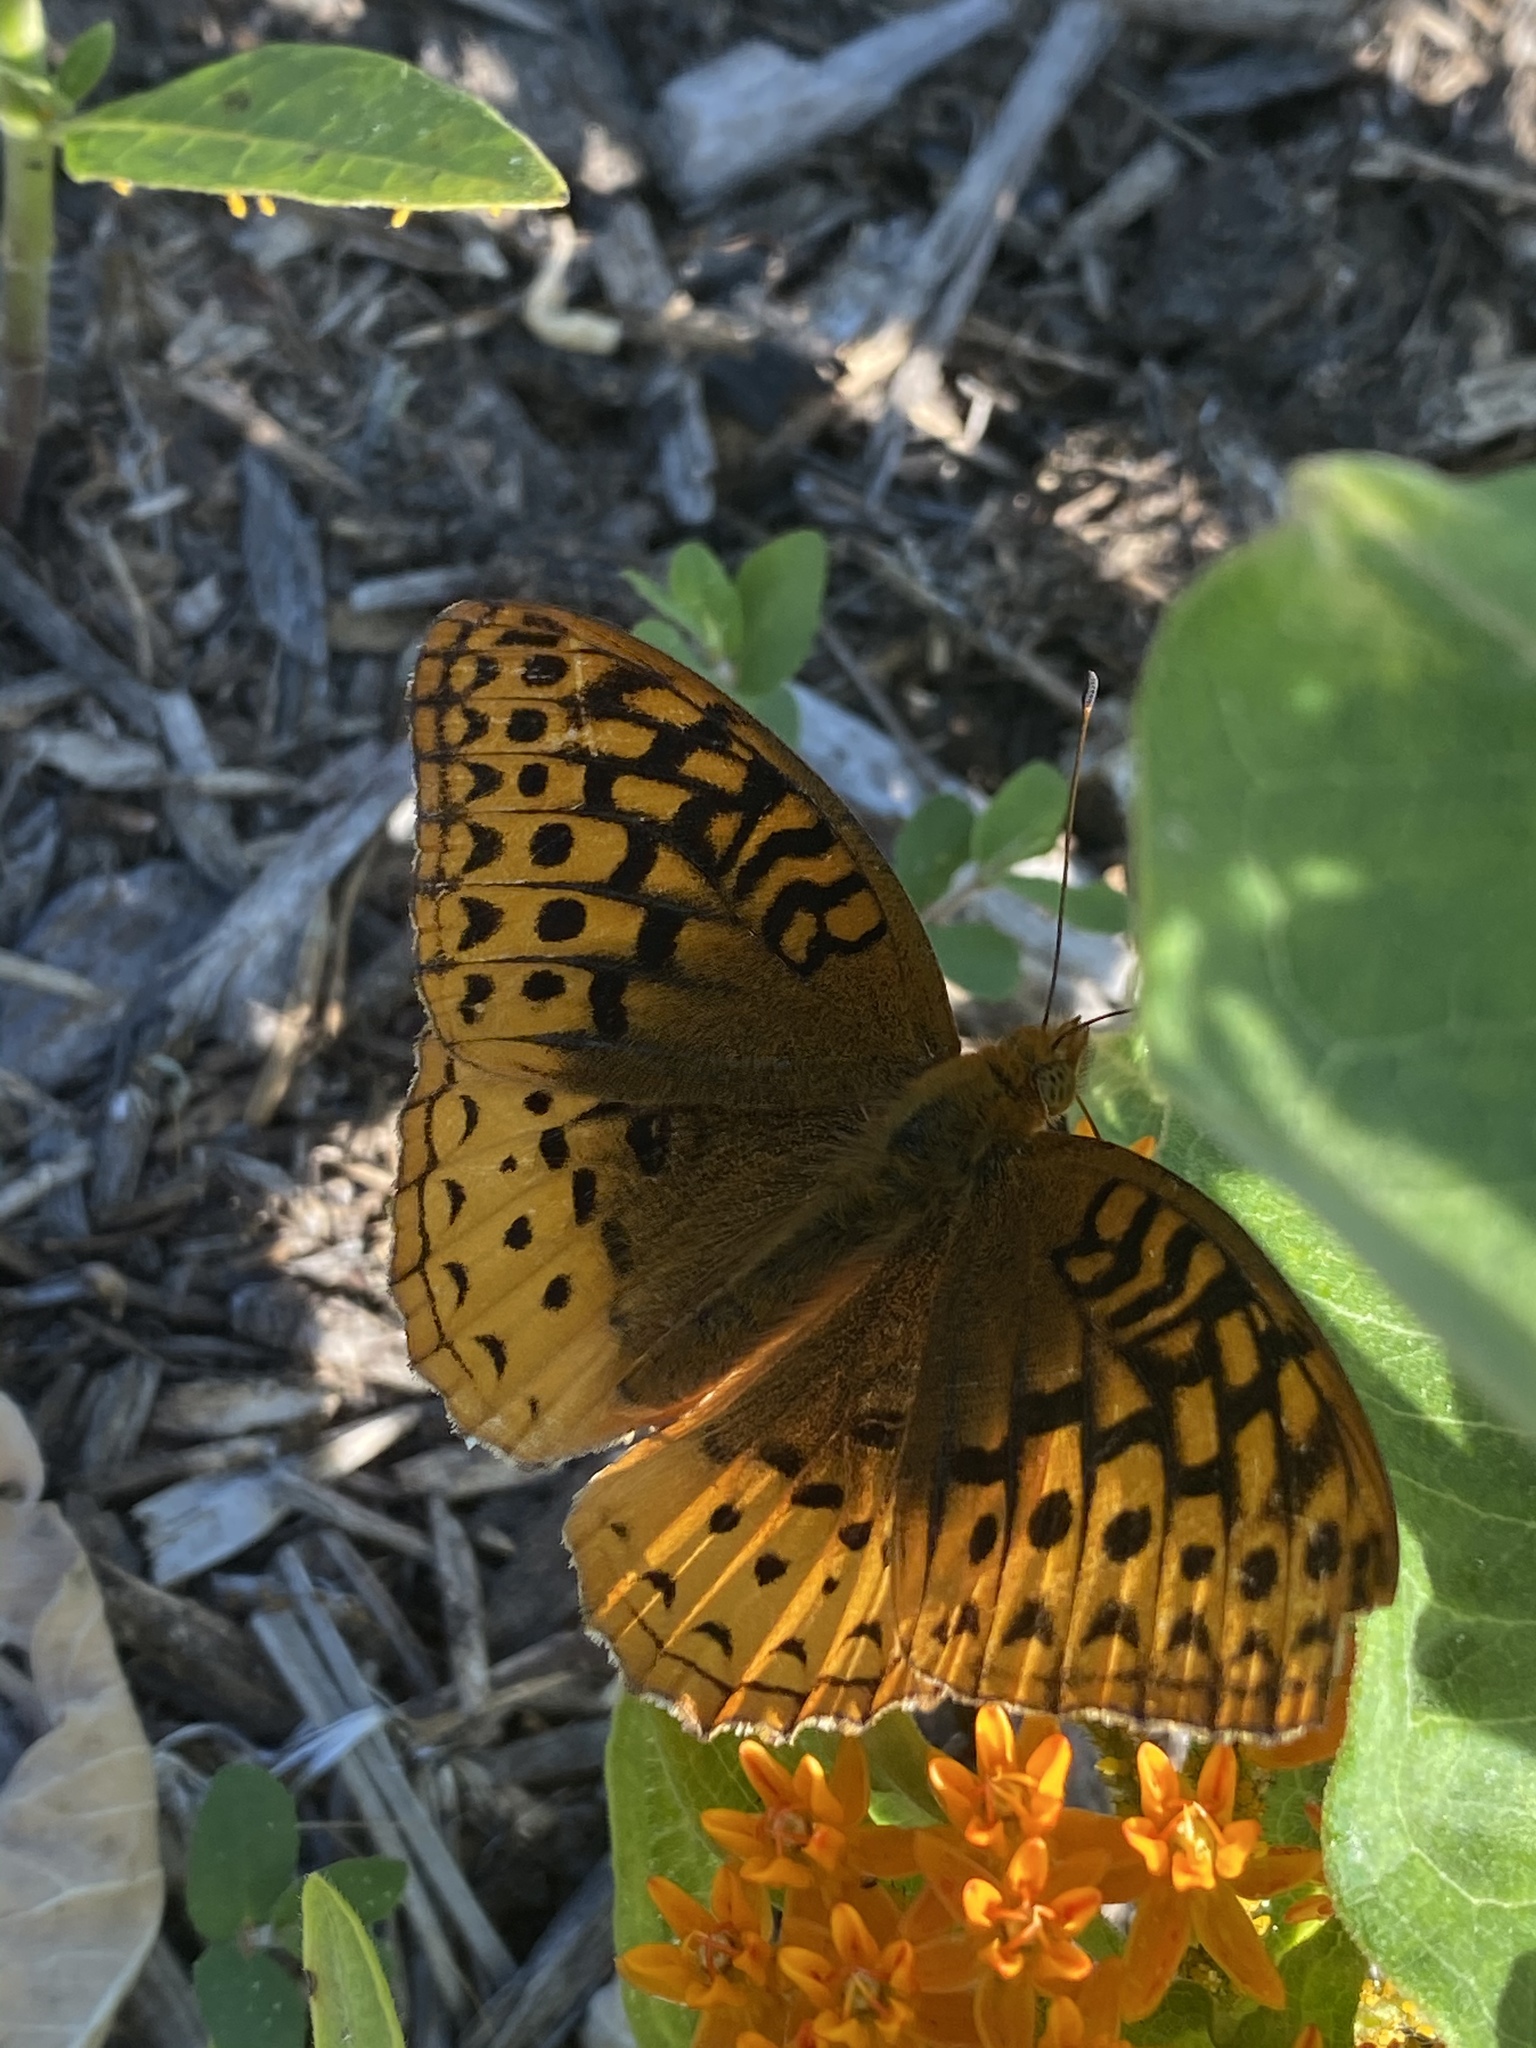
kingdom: Animalia
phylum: Arthropoda
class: Insecta
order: Lepidoptera
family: Nymphalidae
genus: Speyeria
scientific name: Speyeria cybele
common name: Great spangled fritillary
